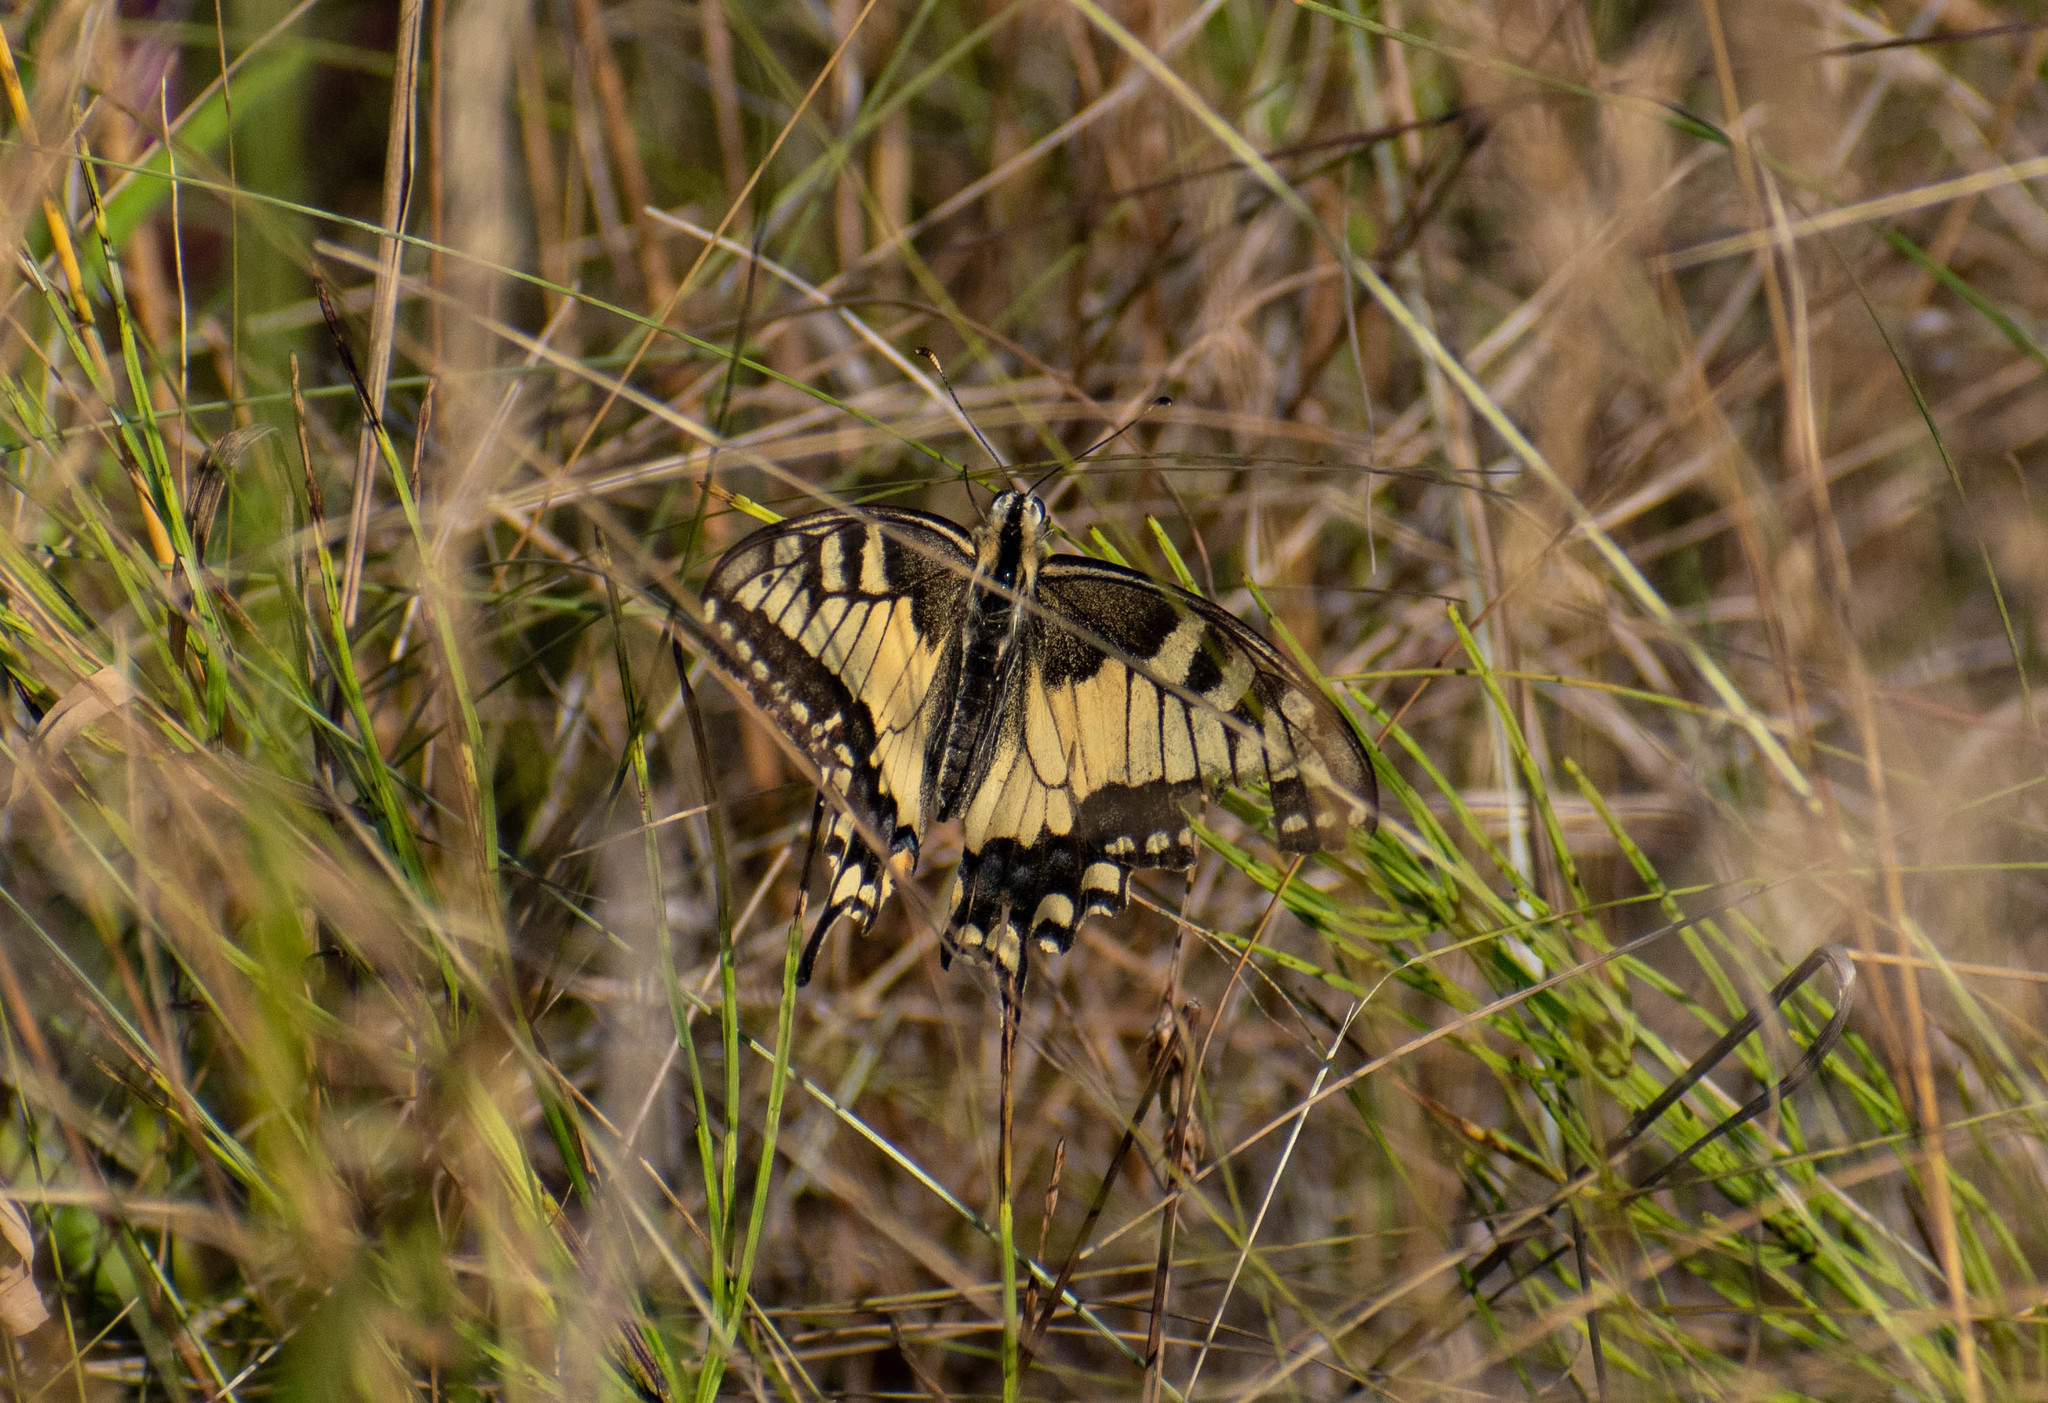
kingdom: Animalia
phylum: Arthropoda
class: Insecta
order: Lepidoptera
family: Papilionidae
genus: Papilio
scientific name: Papilio machaon
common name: Swallowtail
